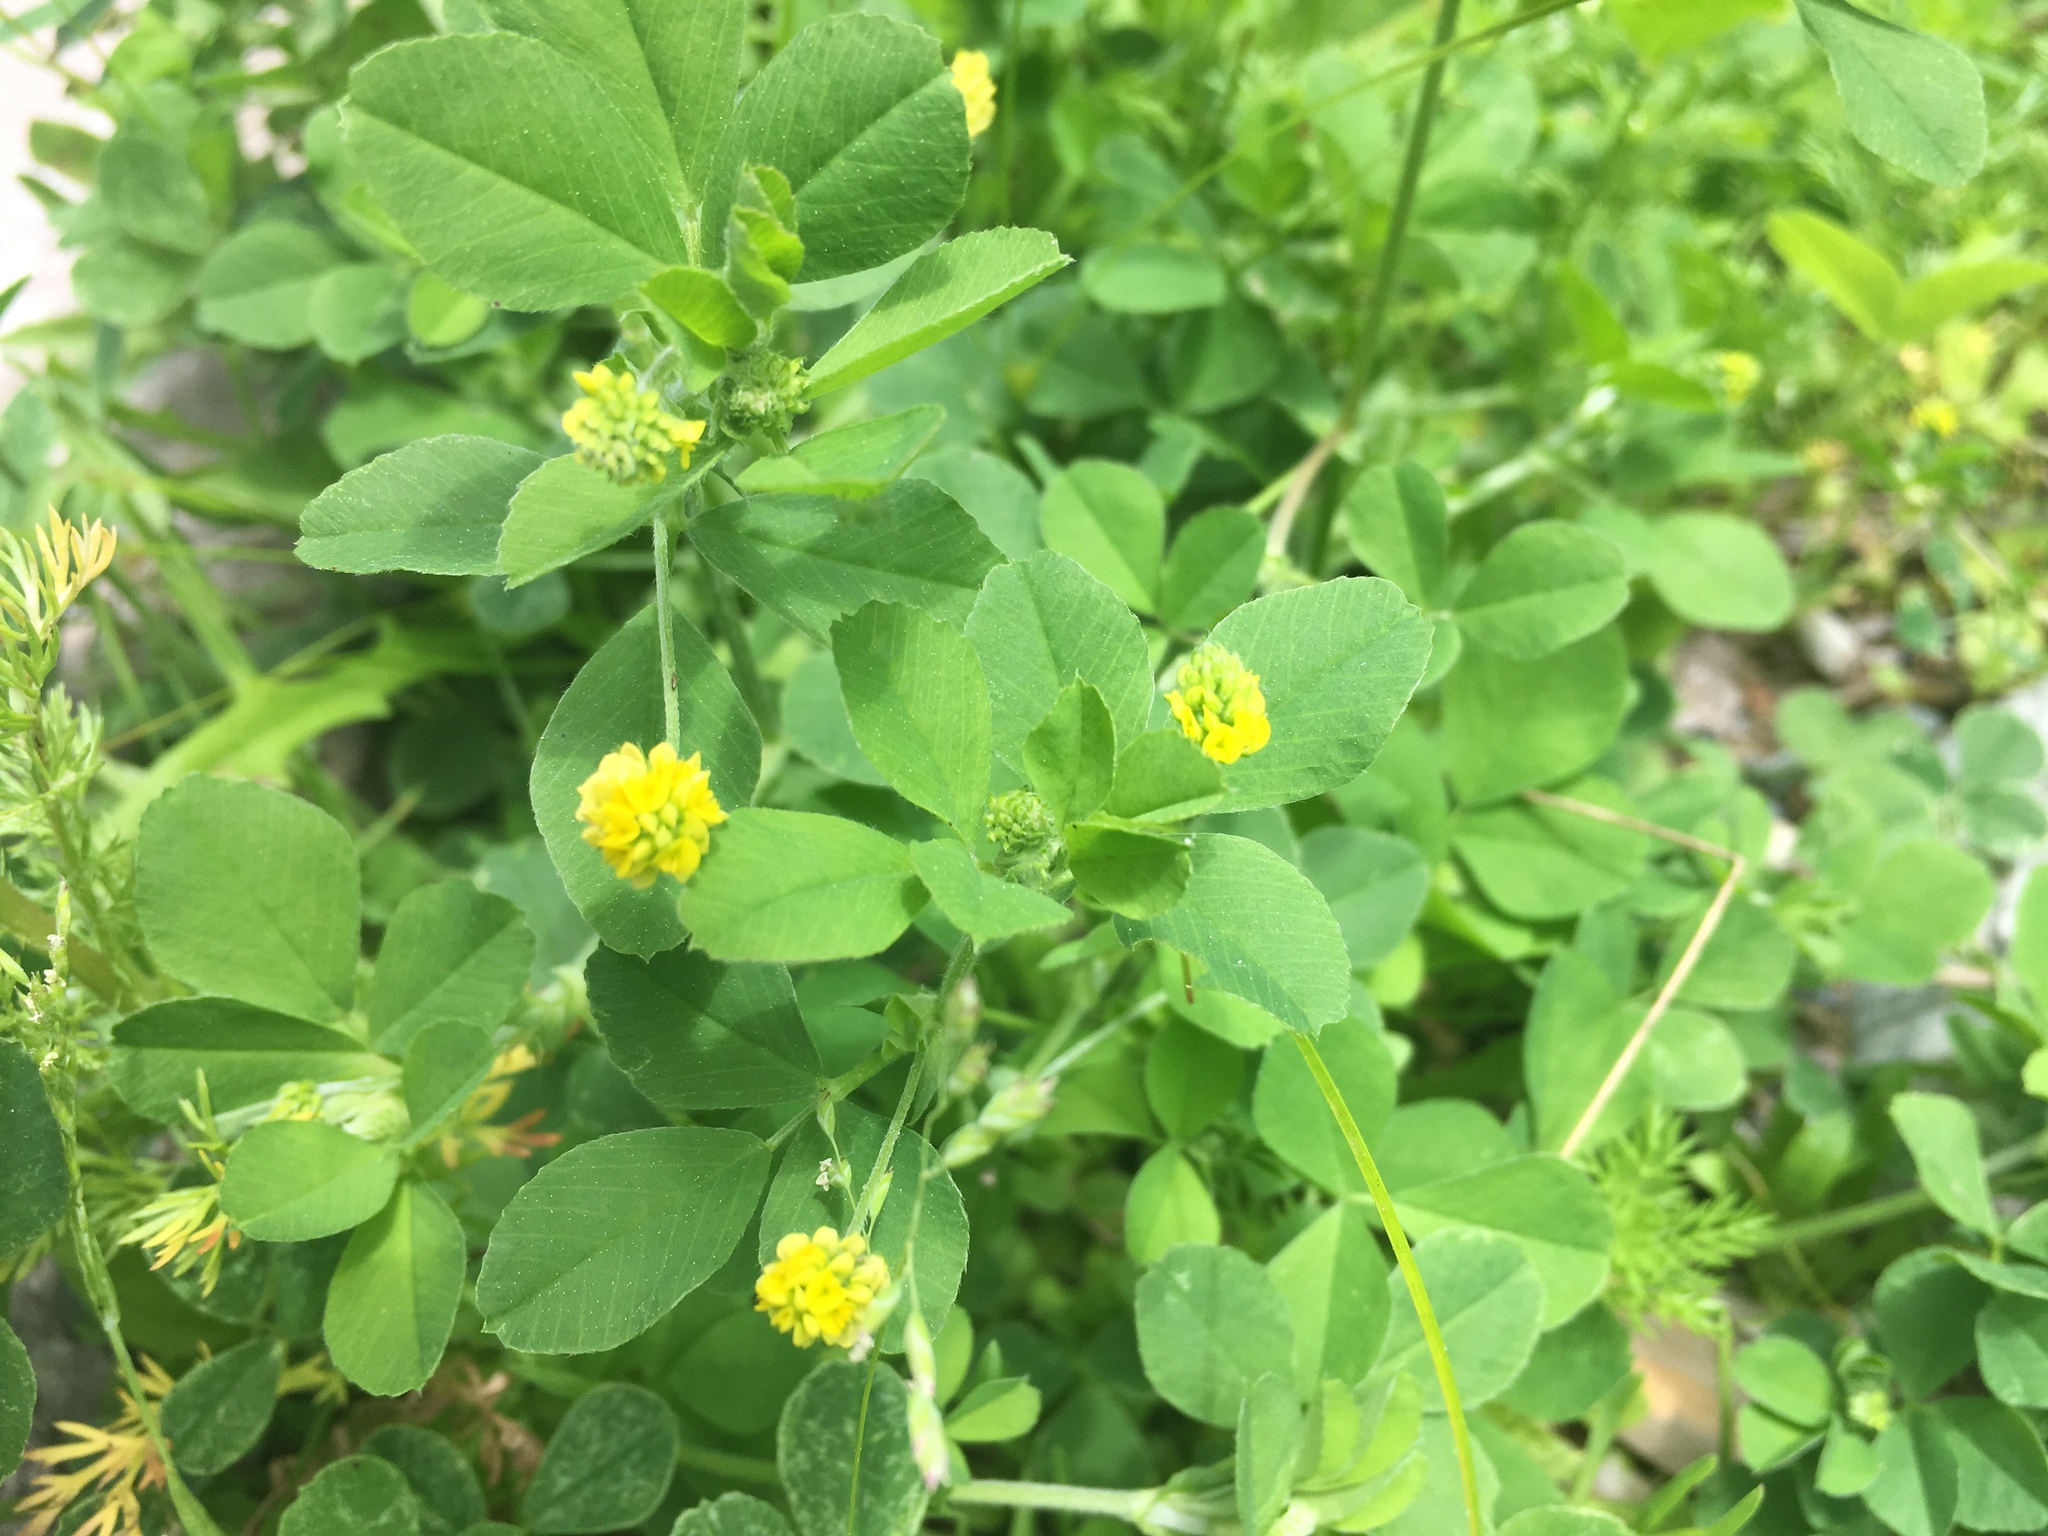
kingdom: Plantae
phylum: Tracheophyta
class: Magnoliopsida
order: Fabales
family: Fabaceae
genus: Medicago
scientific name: Medicago lupulina
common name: Black medick
